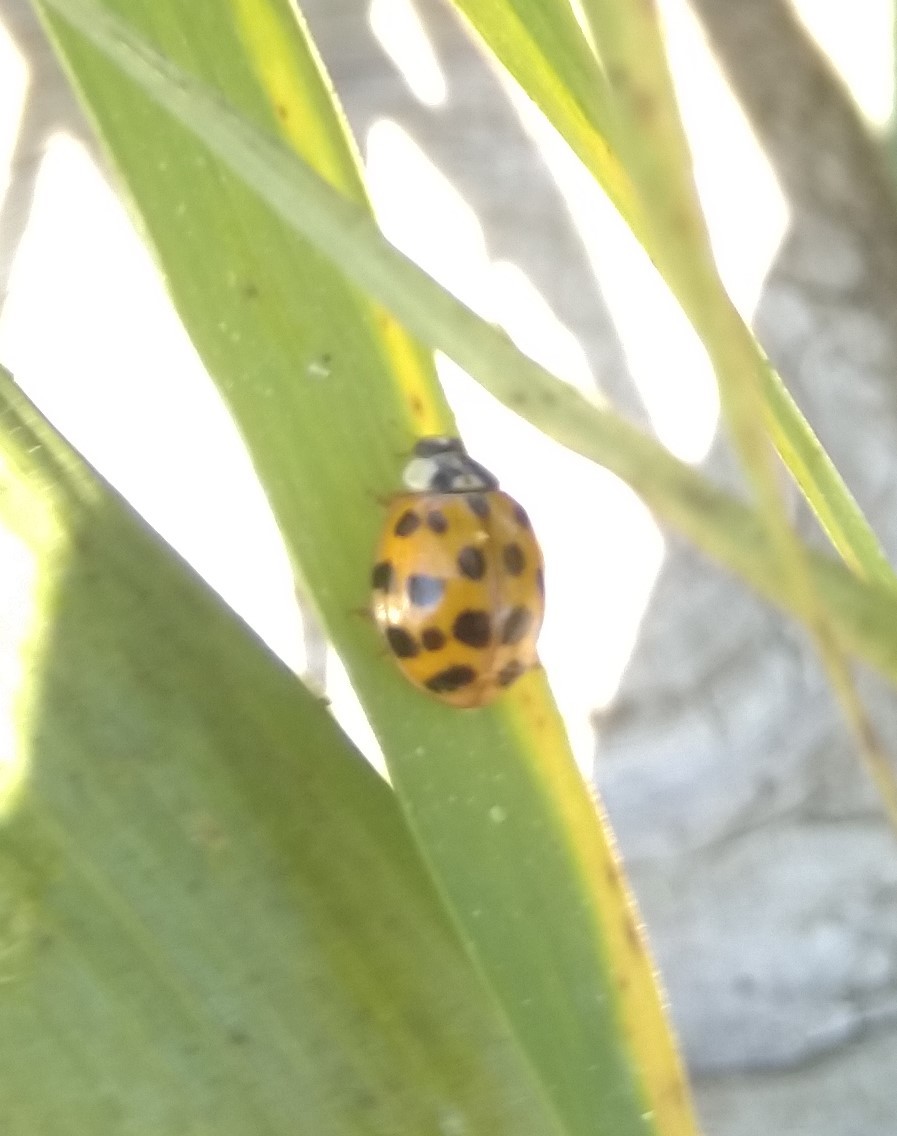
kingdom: Animalia
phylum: Arthropoda
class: Insecta
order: Coleoptera
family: Coccinellidae
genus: Harmonia
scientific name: Harmonia axyridis
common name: Harlequin ladybird
